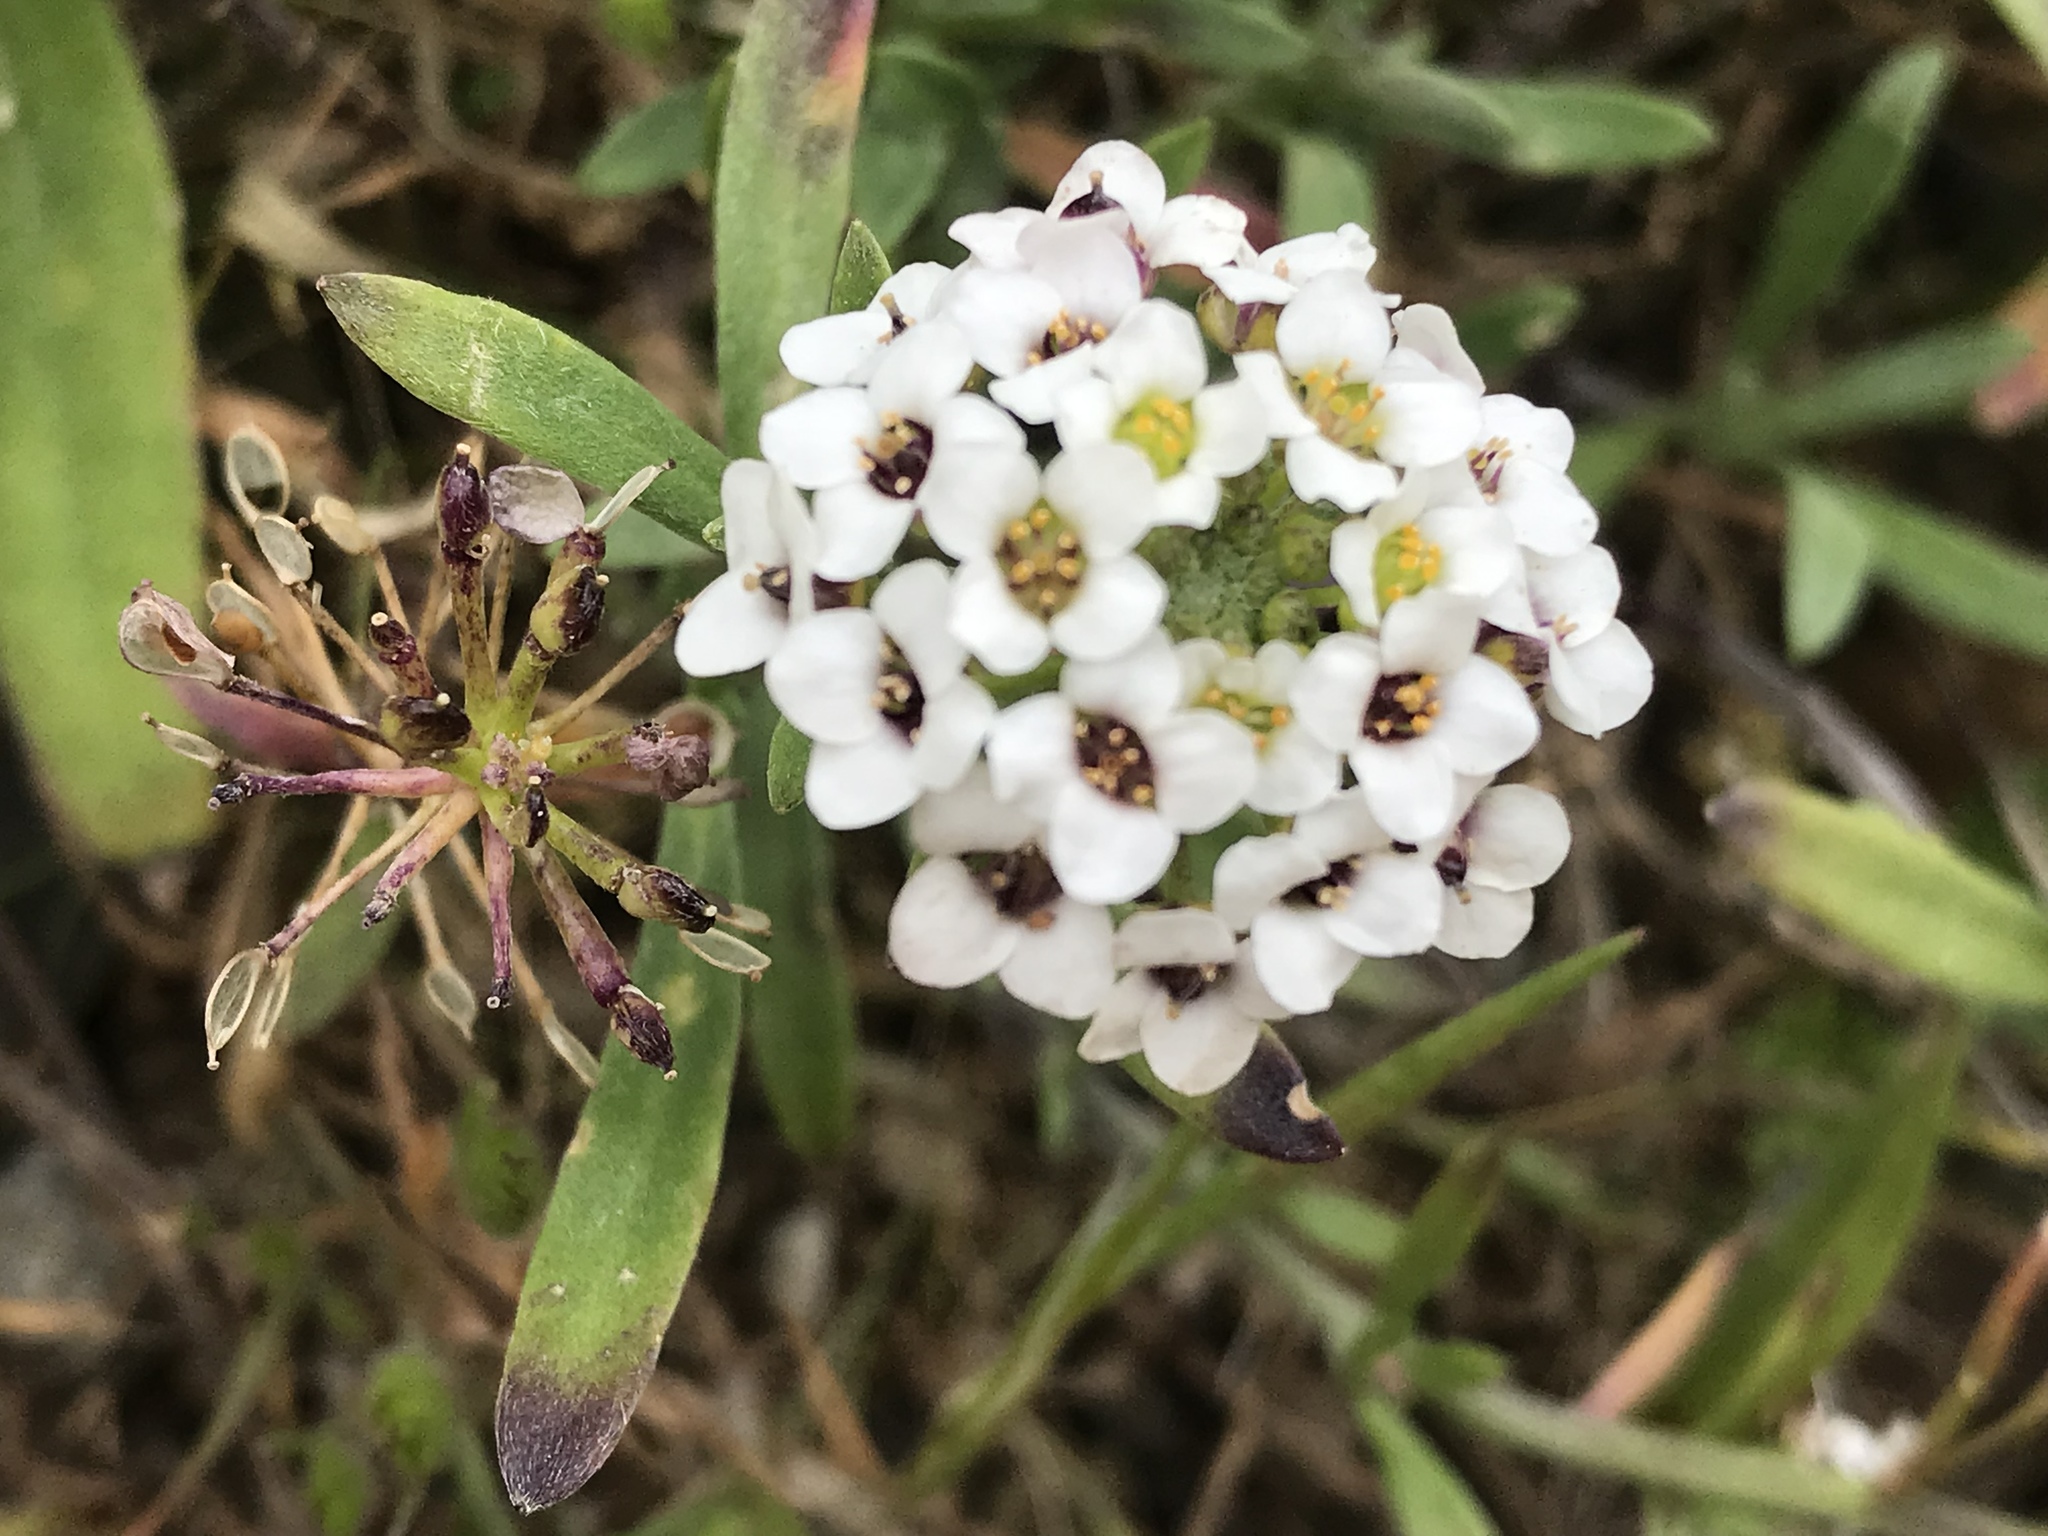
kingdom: Plantae
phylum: Tracheophyta
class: Magnoliopsida
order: Brassicales
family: Brassicaceae
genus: Lobularia
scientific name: Lobularia maritima
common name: Sweet alison
